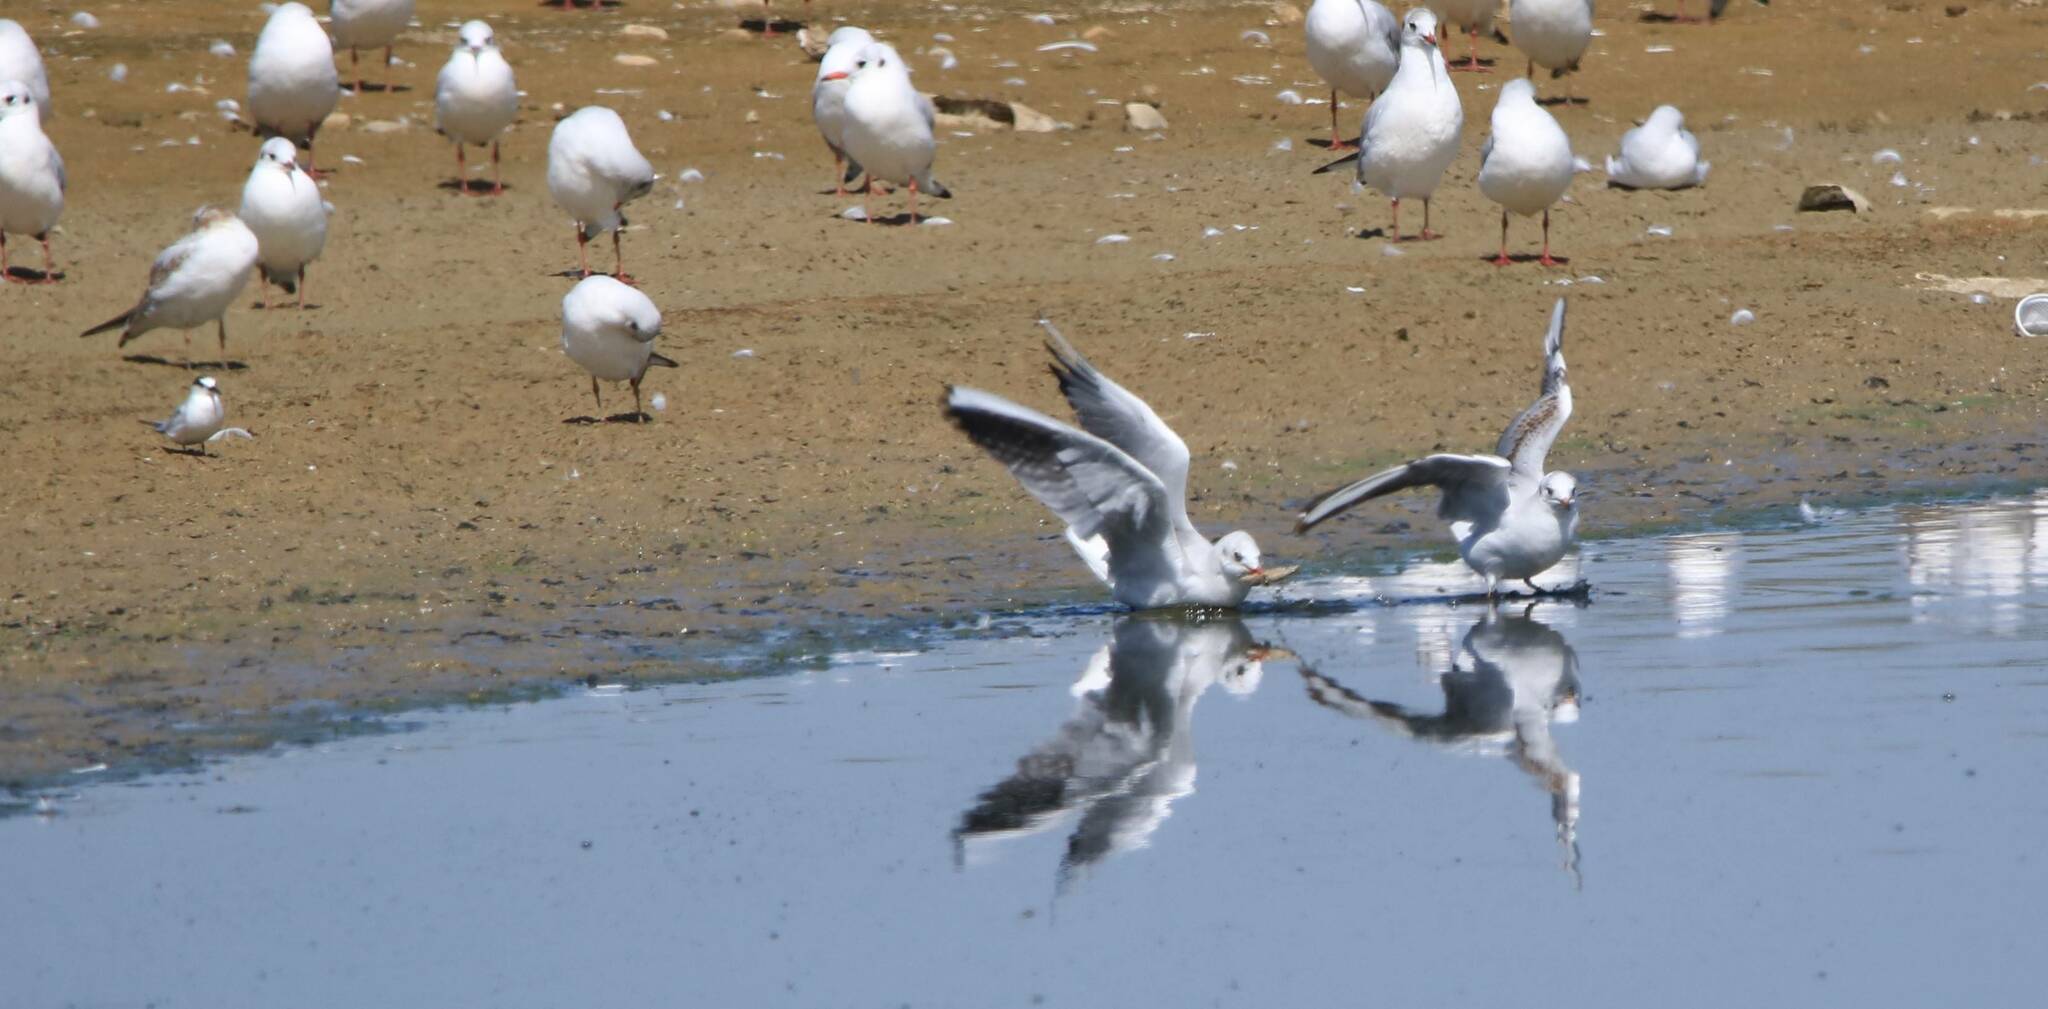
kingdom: Animalia
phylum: Chordata
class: Aves
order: Charadriiformes
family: Laridae
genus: Chroicocephalus
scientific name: Chroicocephalus ridibundus
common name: Black-headed gull
